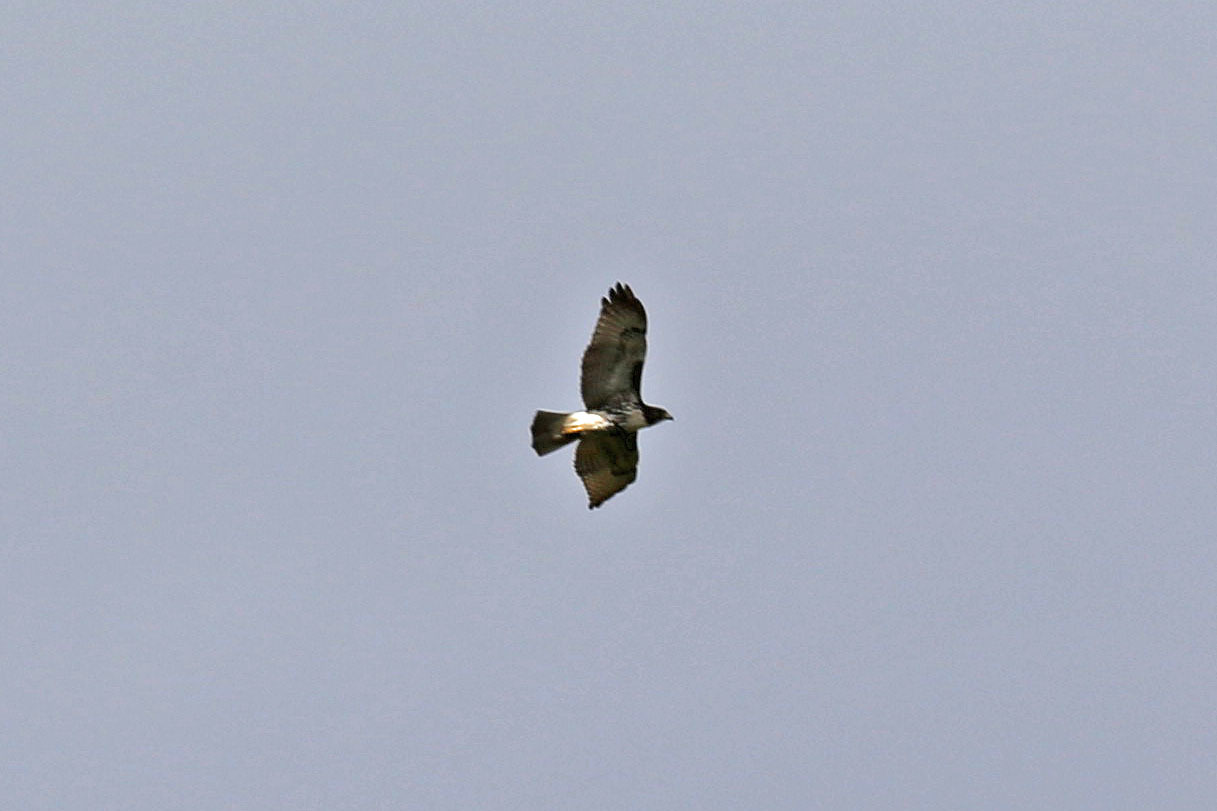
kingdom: Animalia
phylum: Chordata
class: Aves
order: Accipitriformes
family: Accipitridae
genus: Buteo
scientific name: Buteo jamaicensis
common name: Red-tailed hawk
